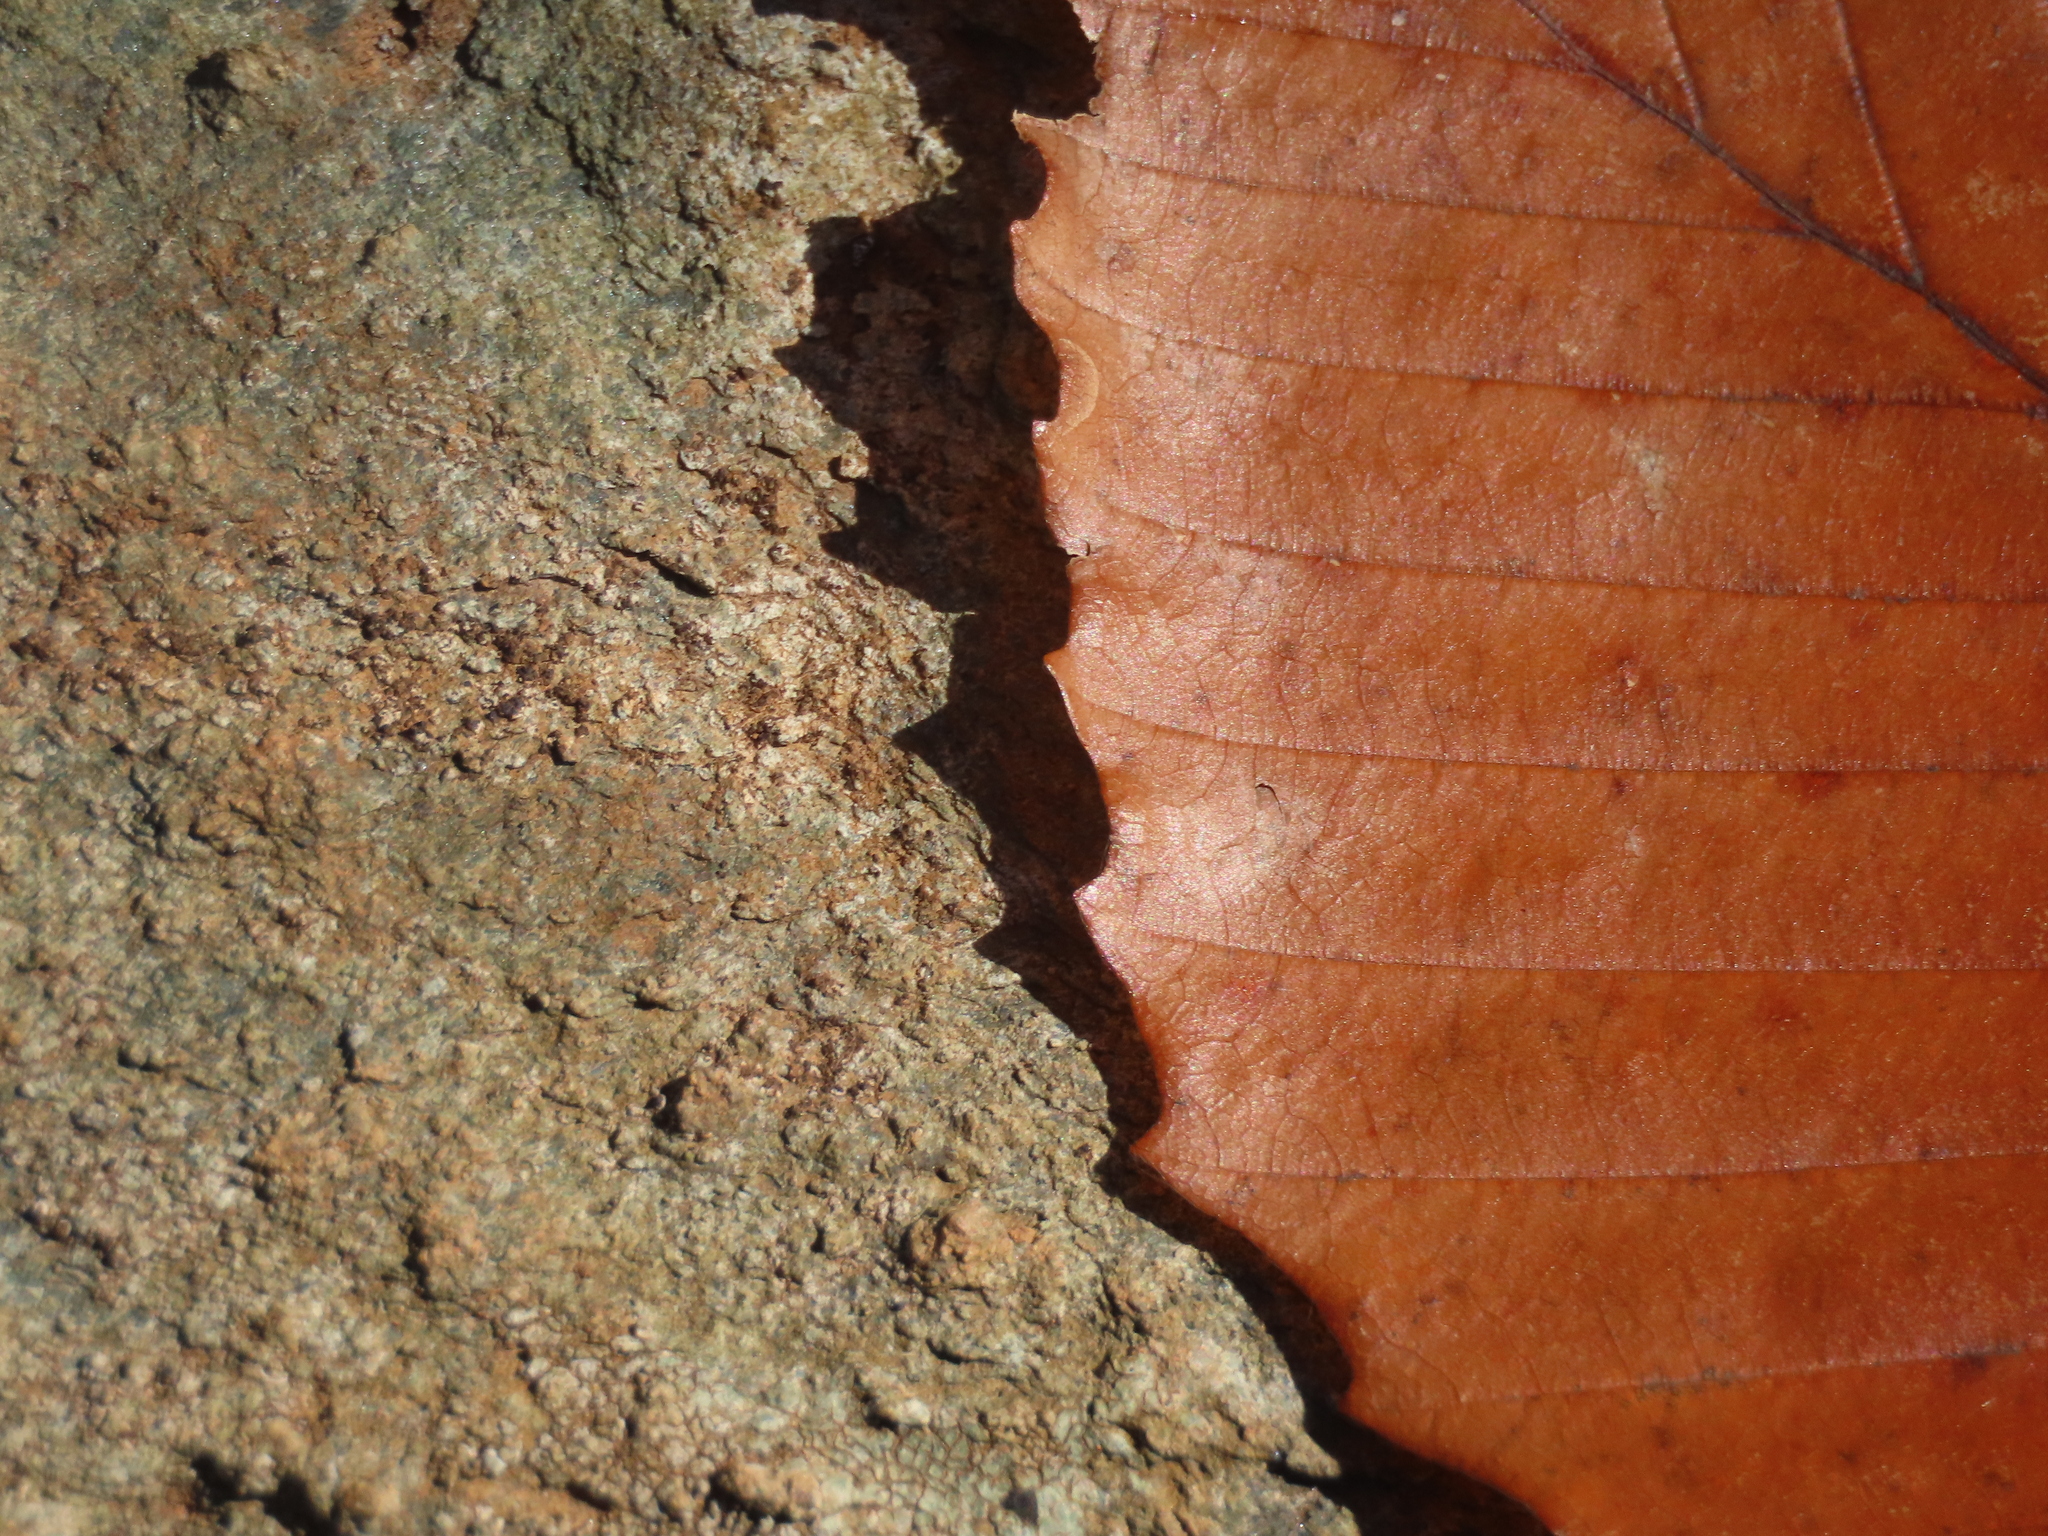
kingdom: Plantae
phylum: Tracheophyta
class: Magnoliopsida
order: Fagales
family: Fagaceae
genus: Fagus
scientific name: Fagus grandifolia
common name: American beech
